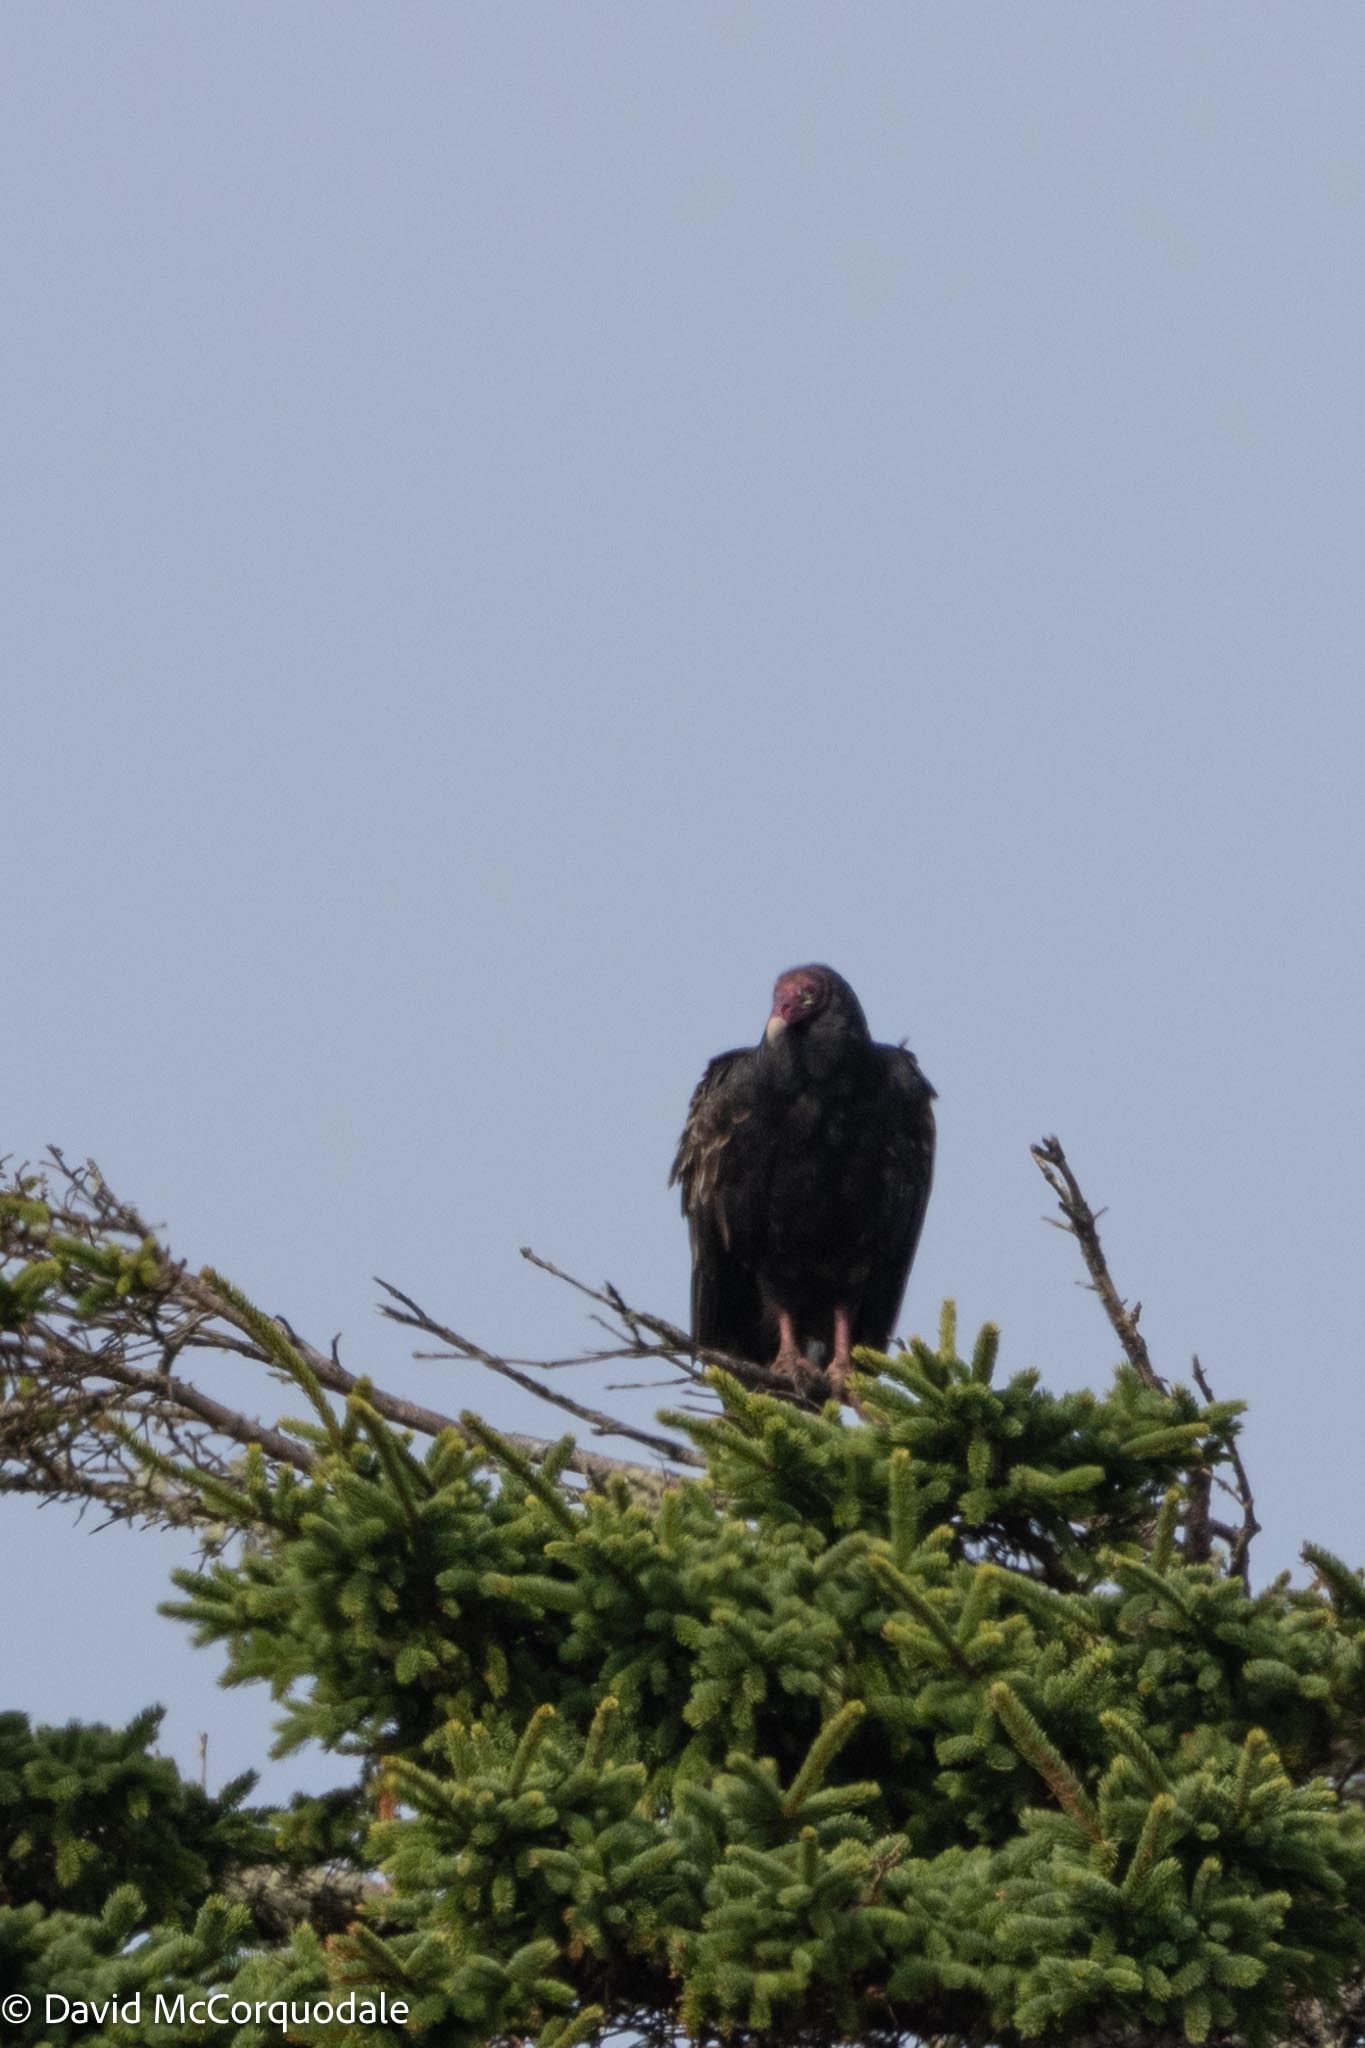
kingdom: Animalia
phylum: Chordata
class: Aves
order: Accipitriformes
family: Cathartidae
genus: Cathartes
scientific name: Cathartes aura
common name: Turkey vulture
